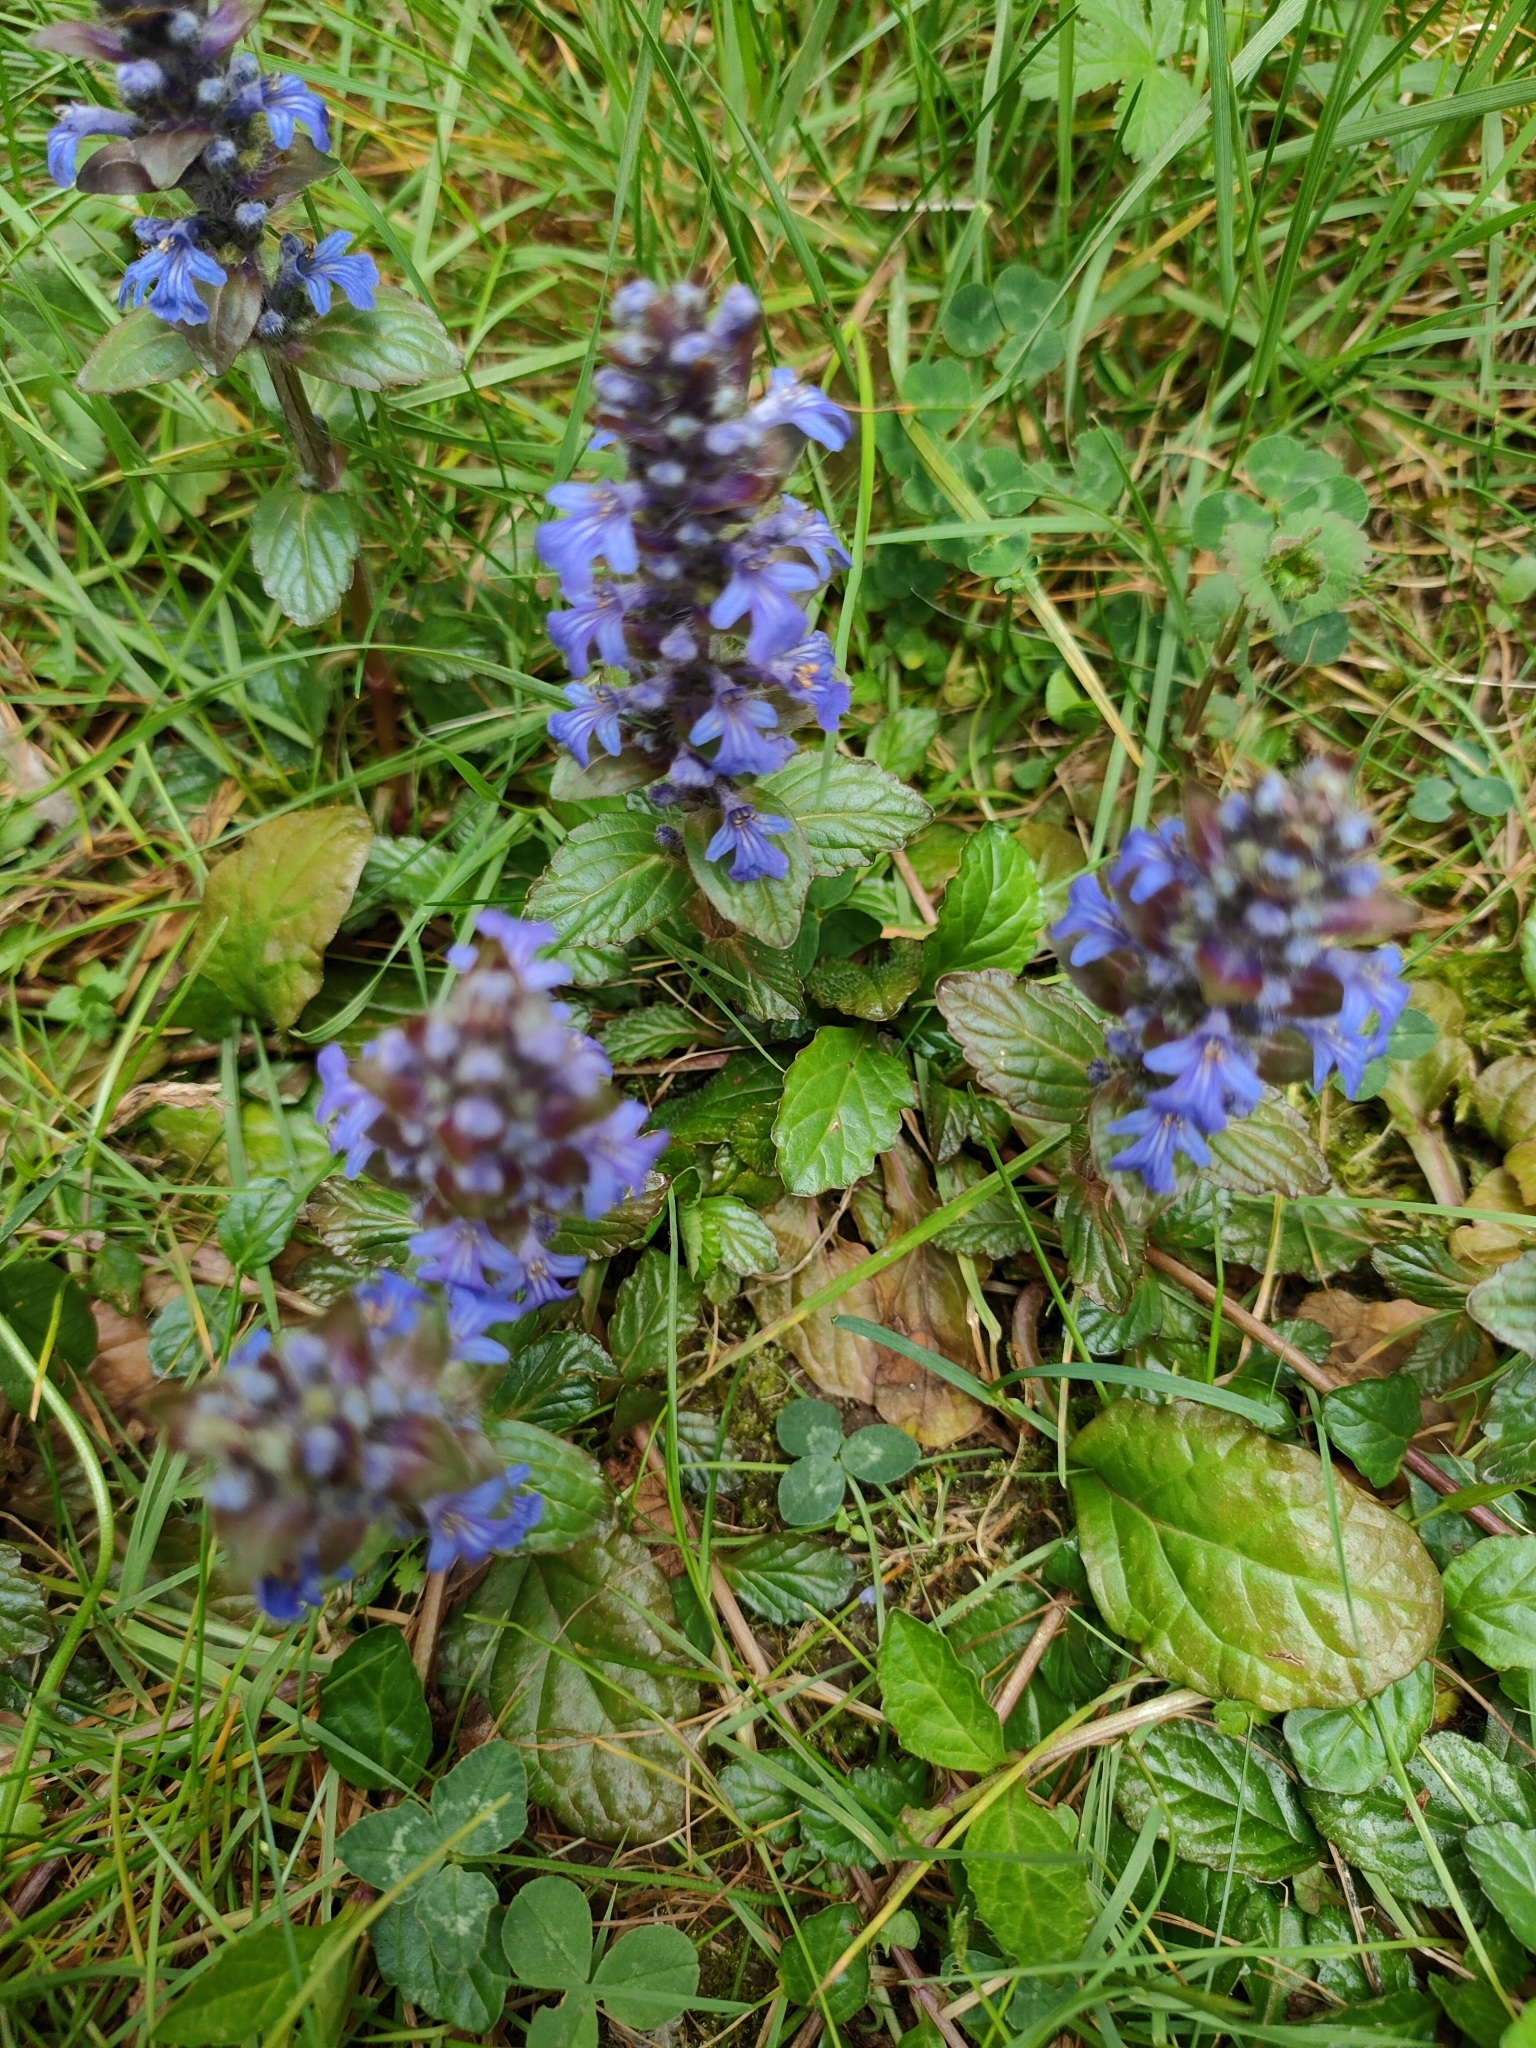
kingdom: Plantae
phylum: Tracheophyta
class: Magnoliopsida
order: Lamiales
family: Lamiaceae
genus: Ajuga
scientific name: Ajuga reptans
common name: Bugle
